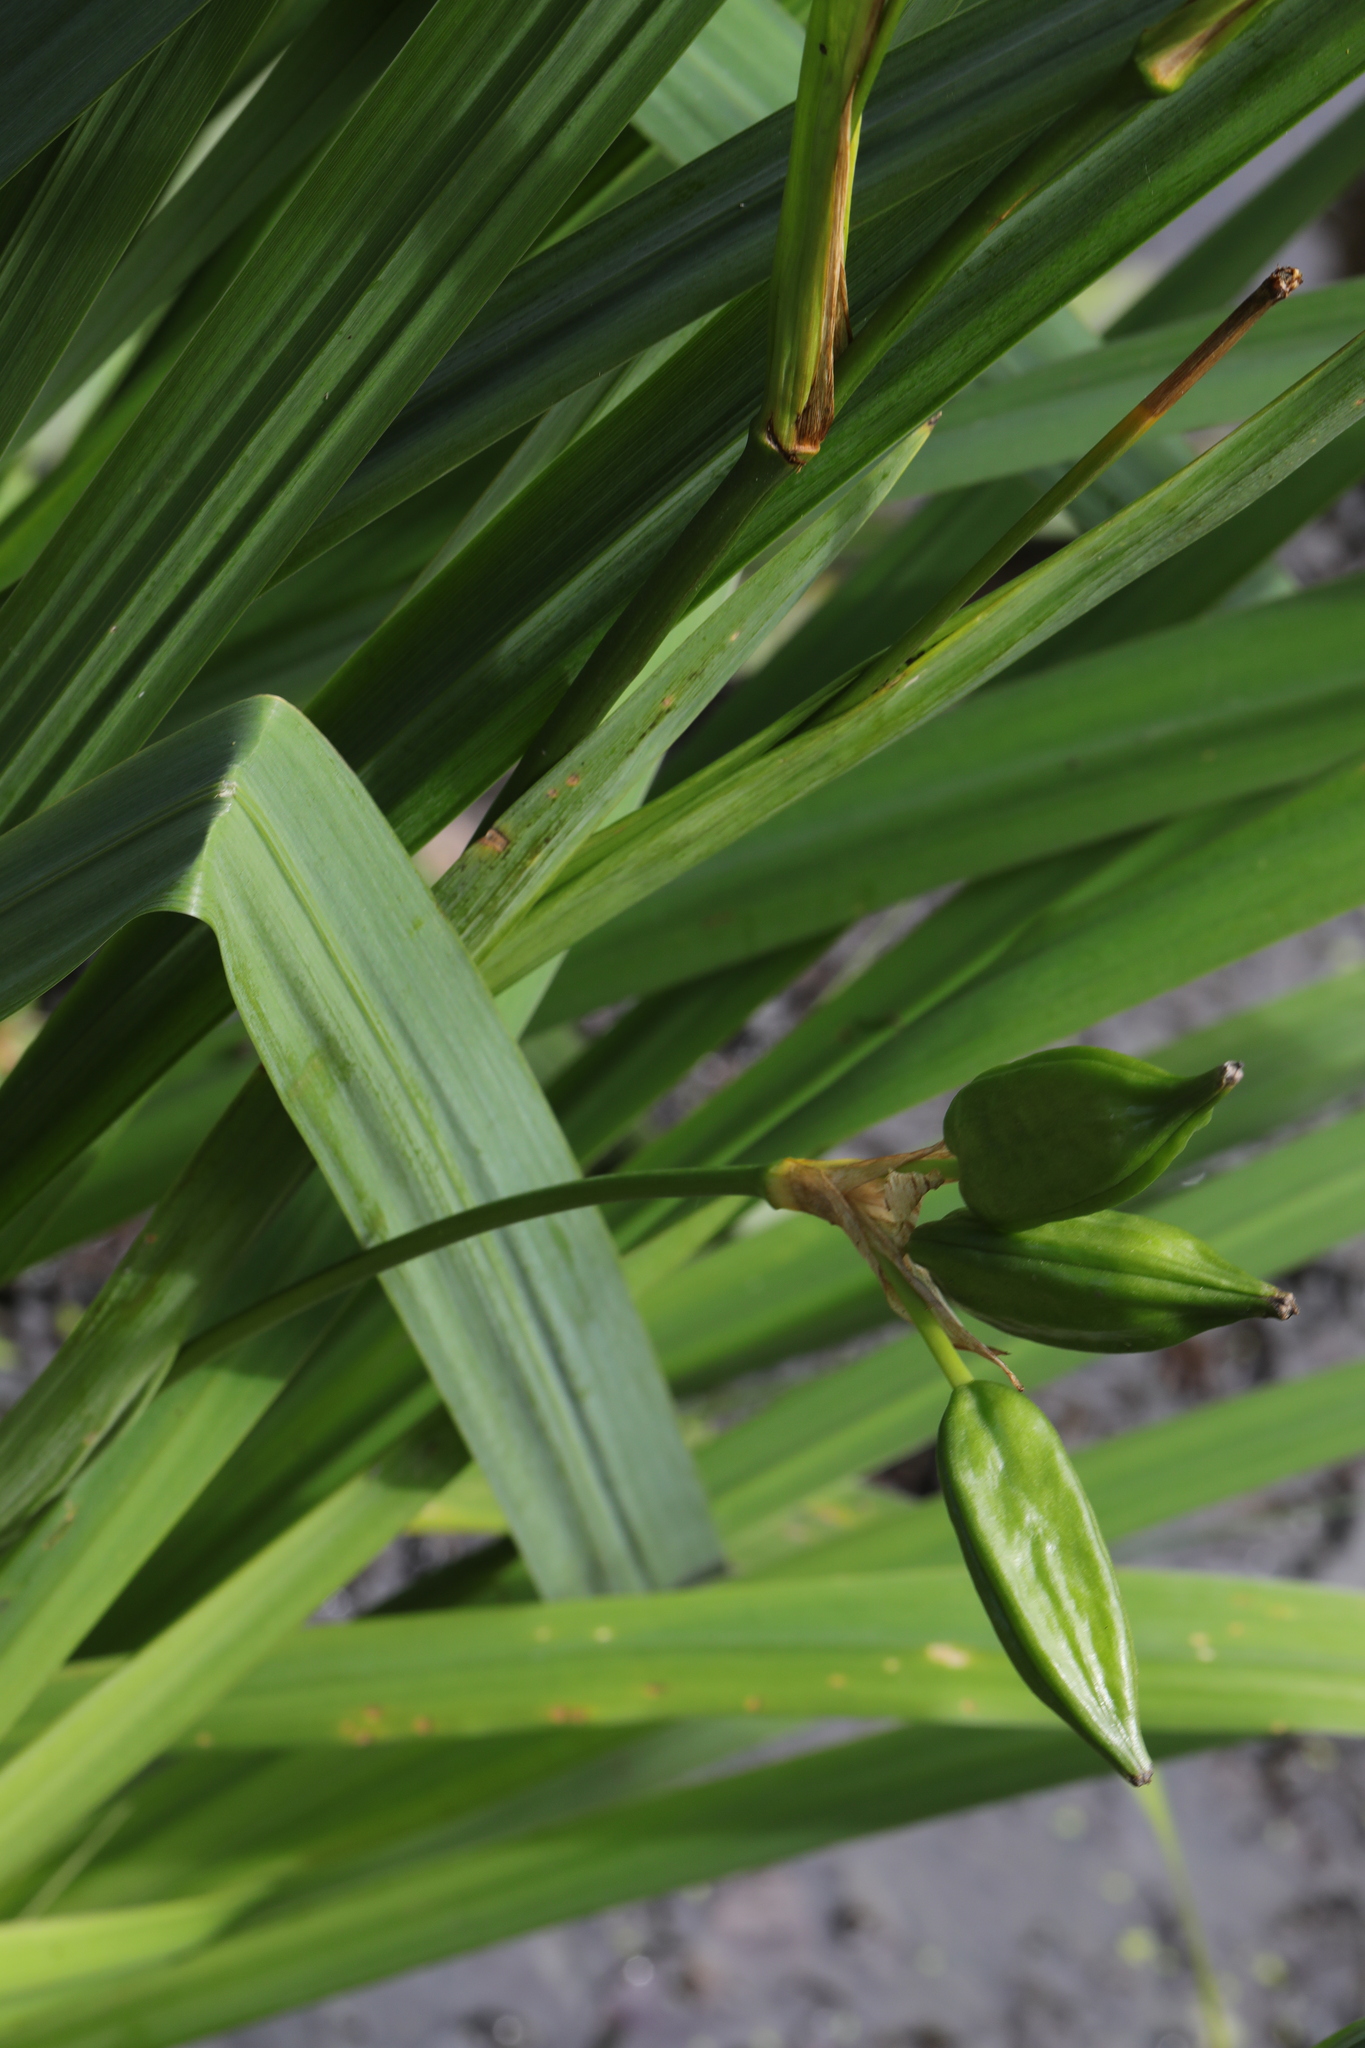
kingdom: Plantae
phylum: Tracheophyta
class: Liliopsida
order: Asparagales
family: Iridaceae
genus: Iris
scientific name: Iris pseudacorus
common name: Yellow flag
